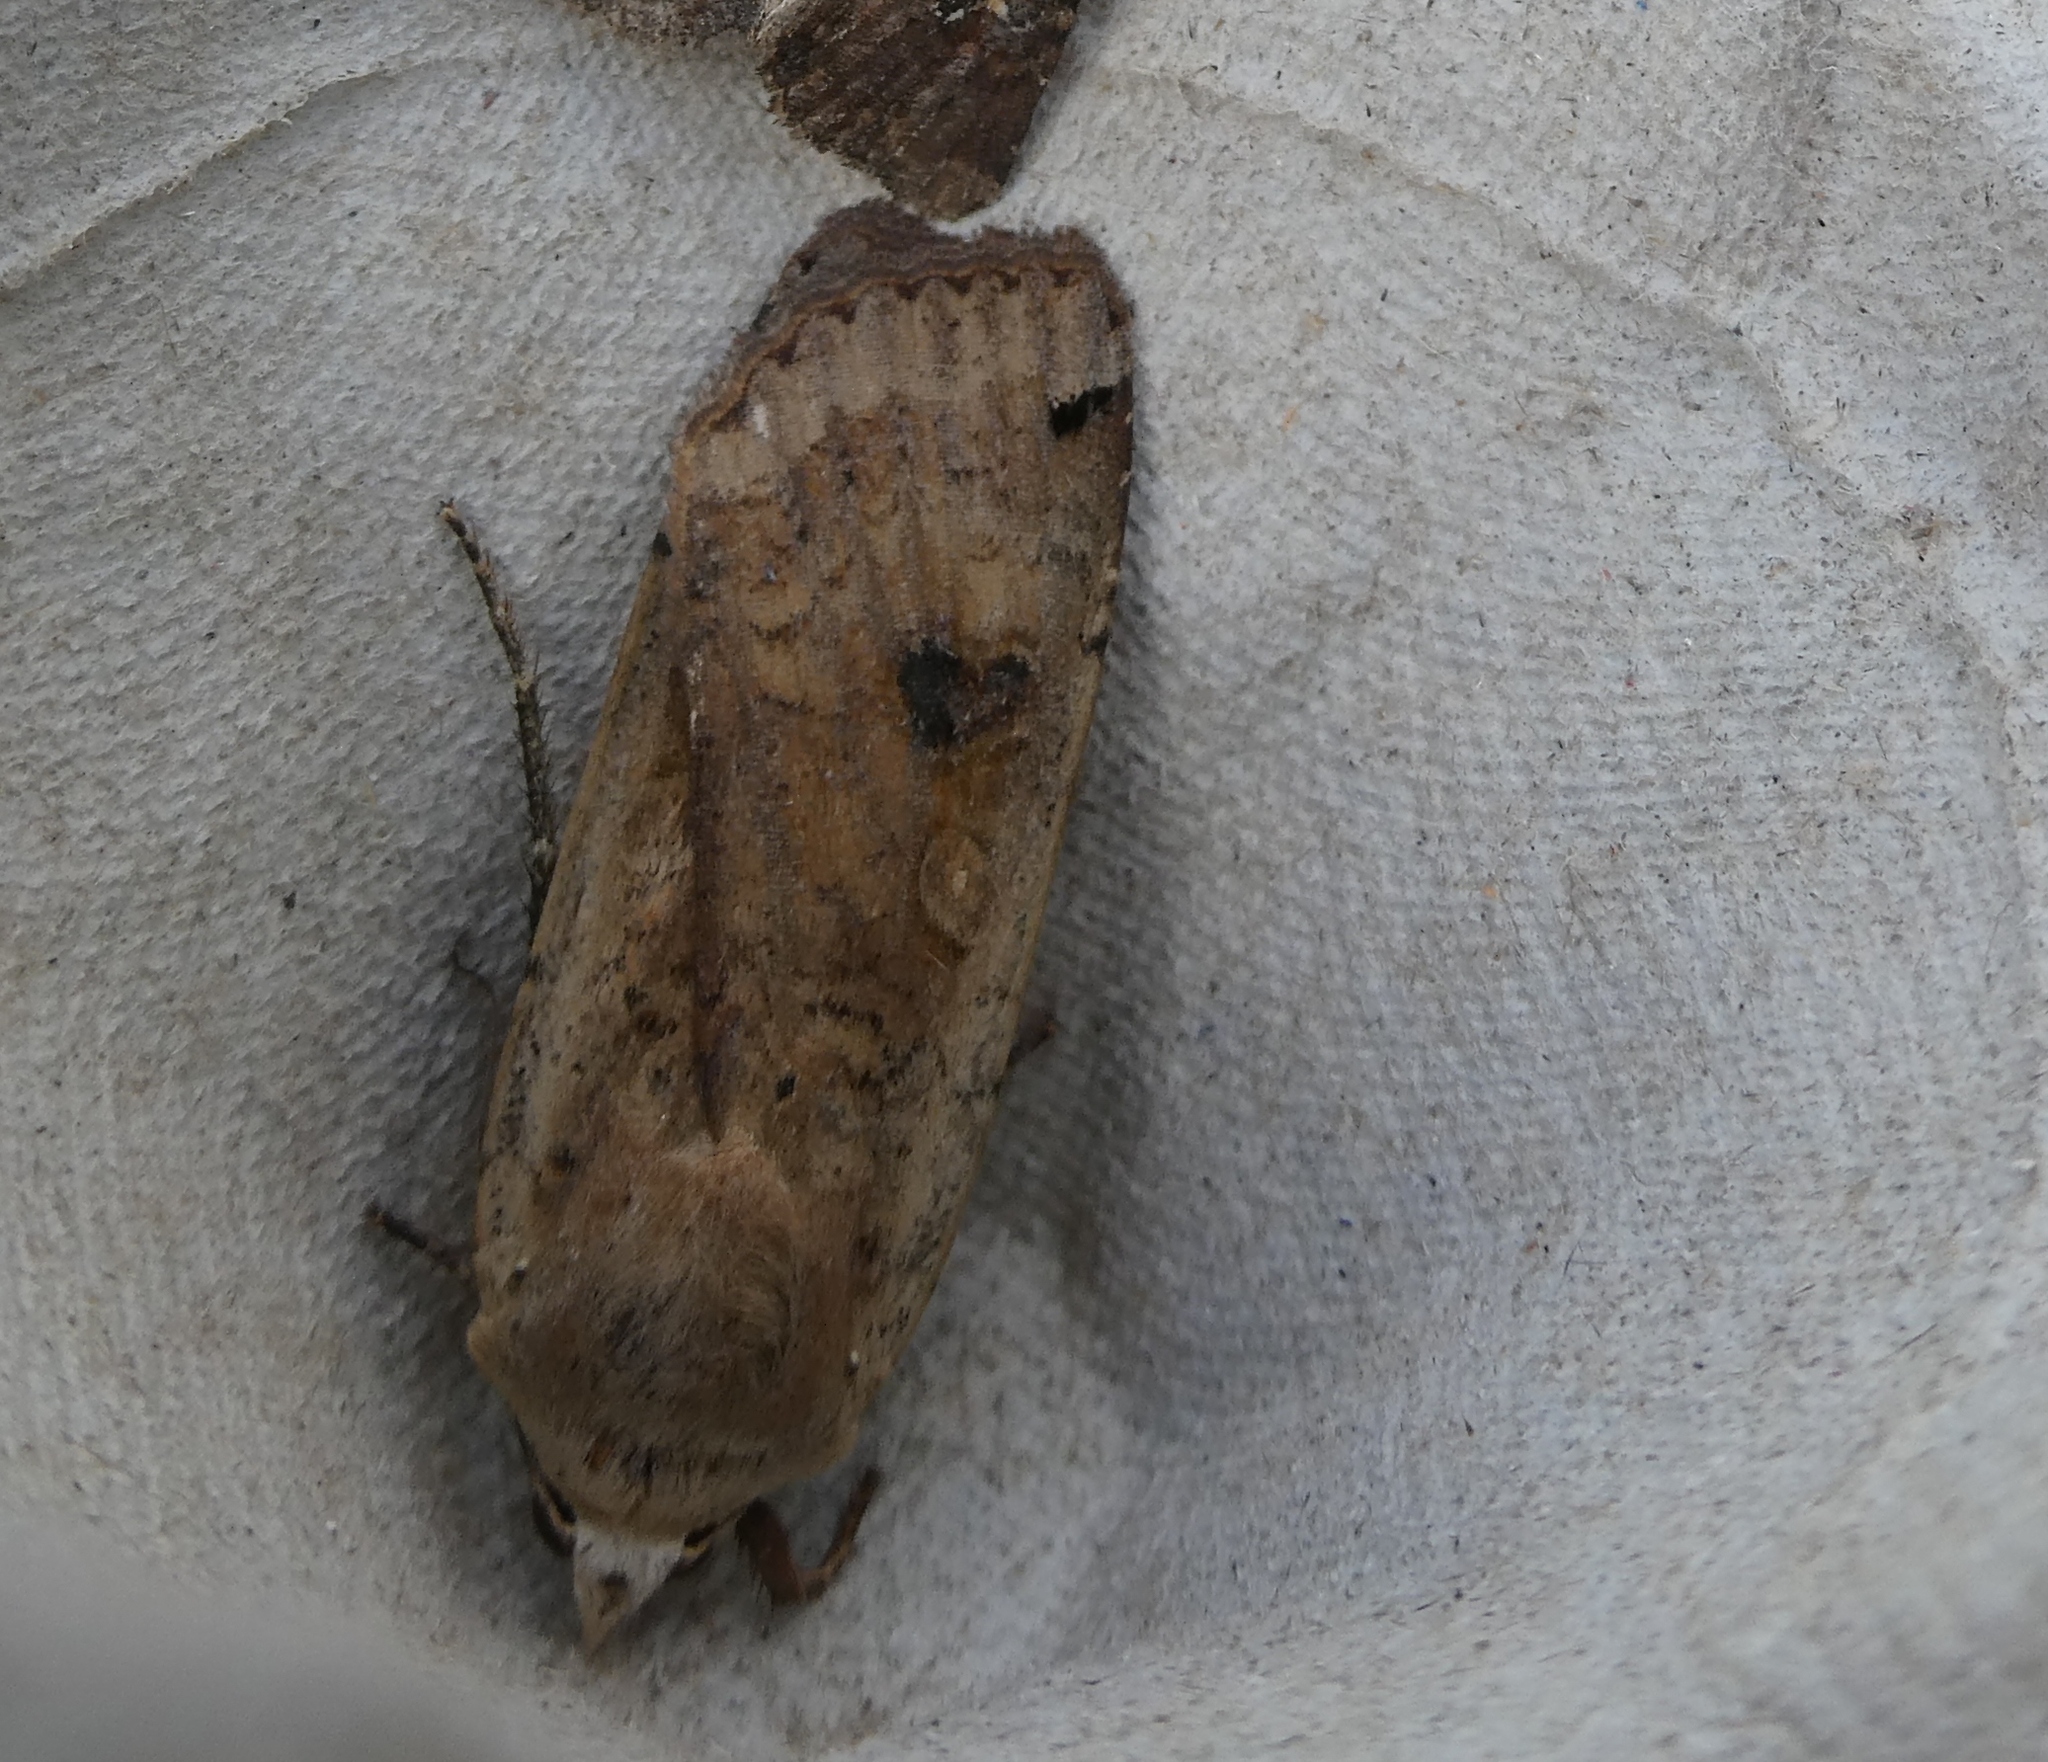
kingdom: Animalia
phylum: Arthropoda
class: Insecta
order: Lepidoptera
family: Noctuidae
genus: Noctua
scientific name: Noctua pronuba
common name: Large yellow underwing
